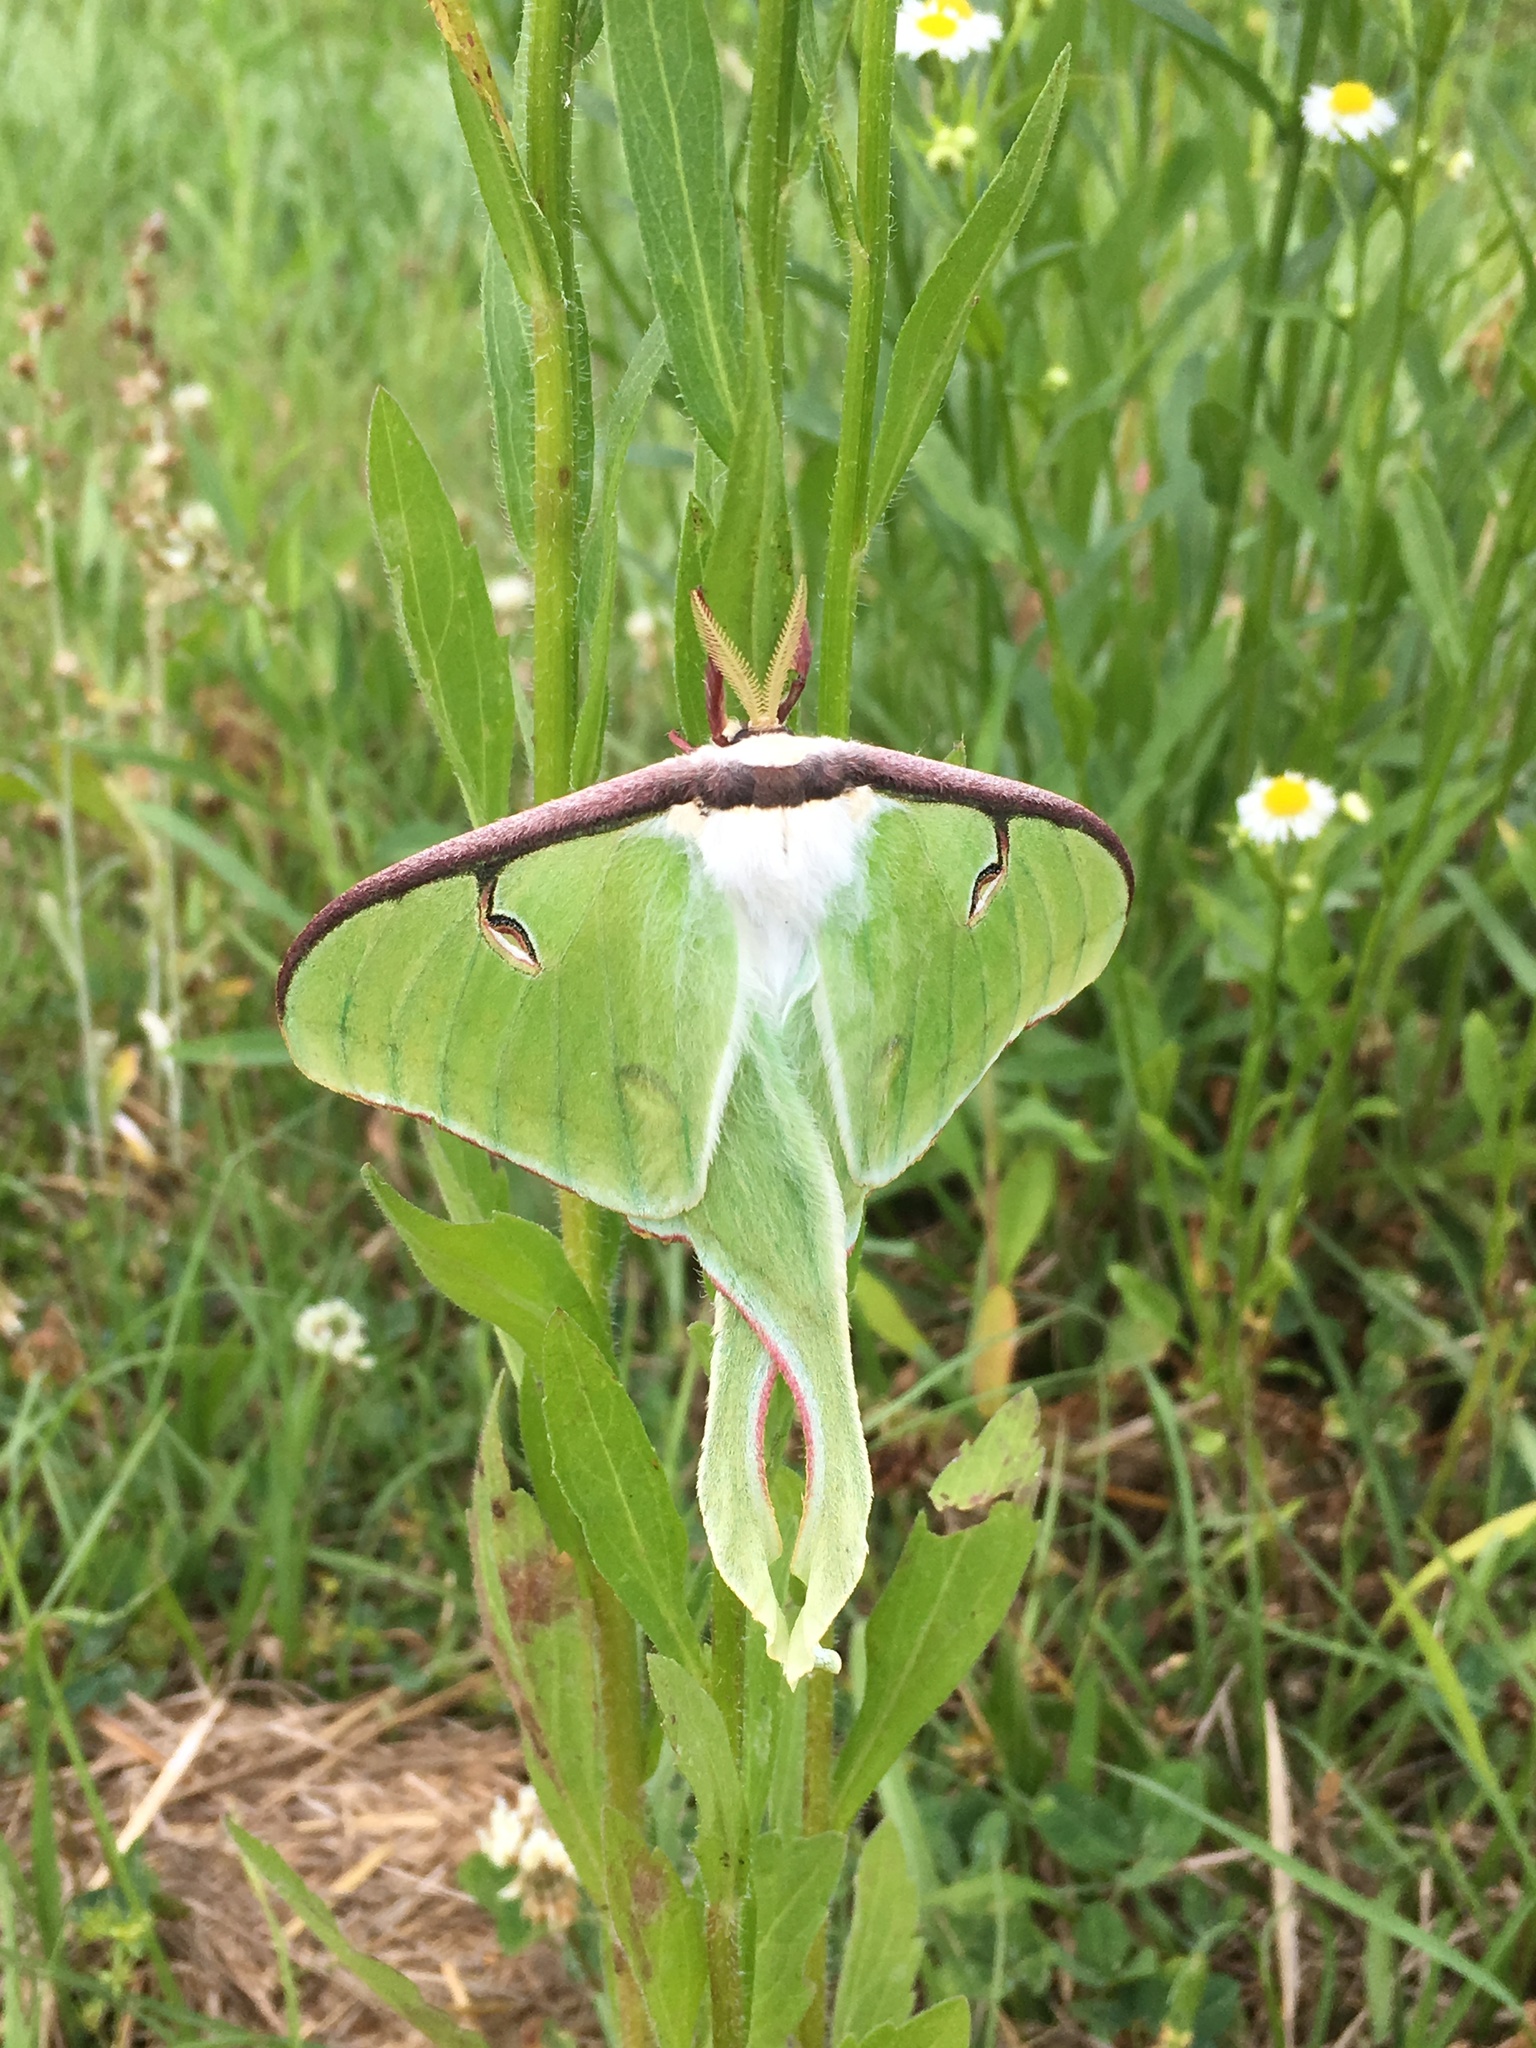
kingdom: Animalia
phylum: Arthropoda
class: Insecta
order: Lepidoptera
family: Saturniidae
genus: Actias
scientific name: Actias luna
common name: Luna moth
